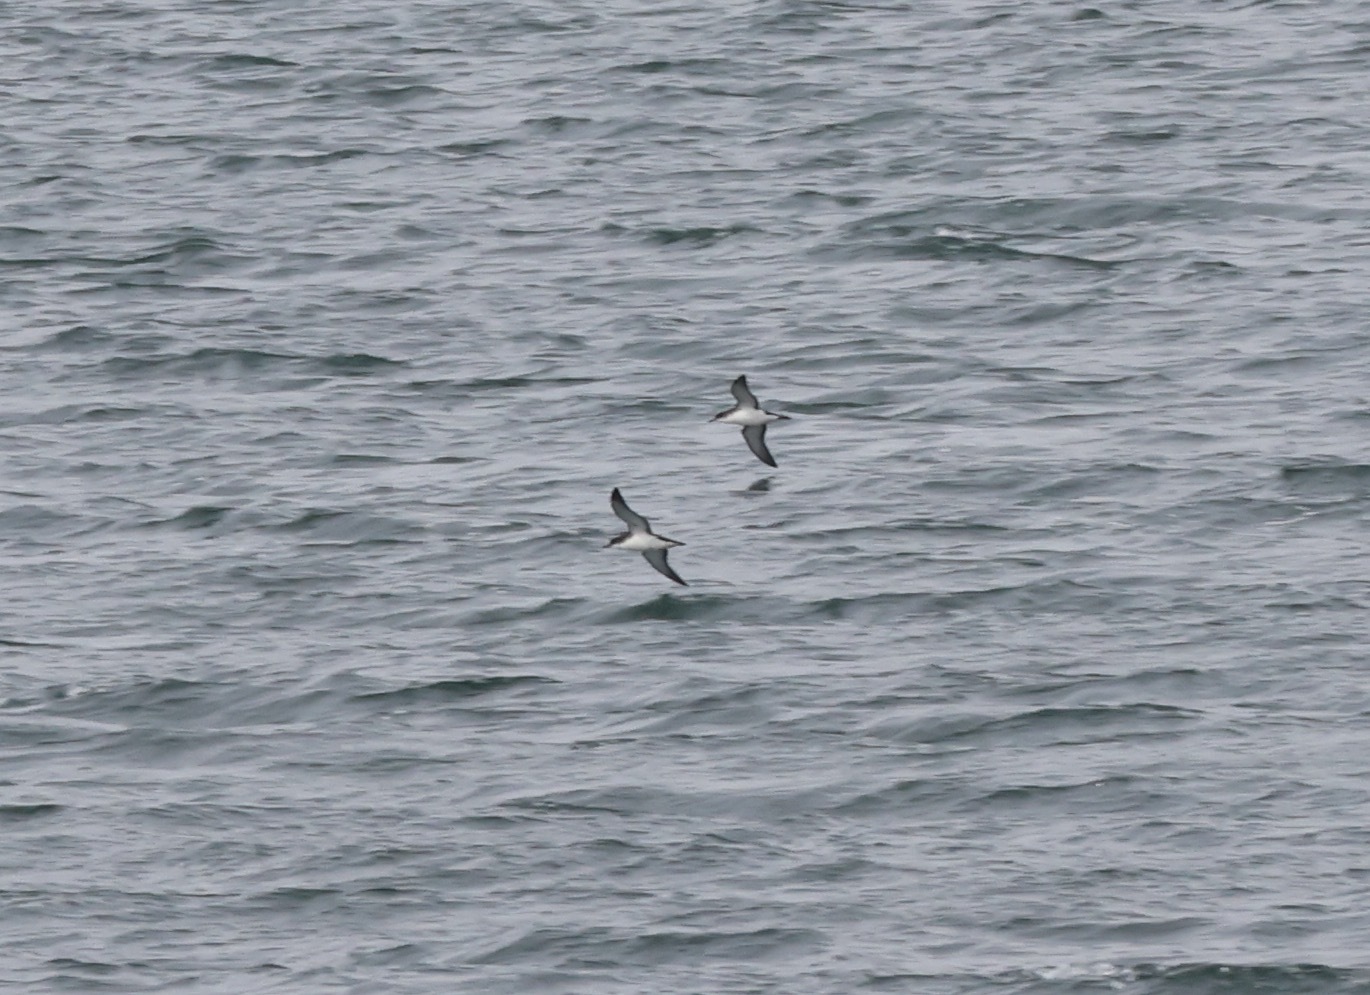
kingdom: Animalia
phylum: Chordata
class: Aves
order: Procellariiformes
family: Procellariidae
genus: Puffinus
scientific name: Puffinus puffinus
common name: Manx shearwater
